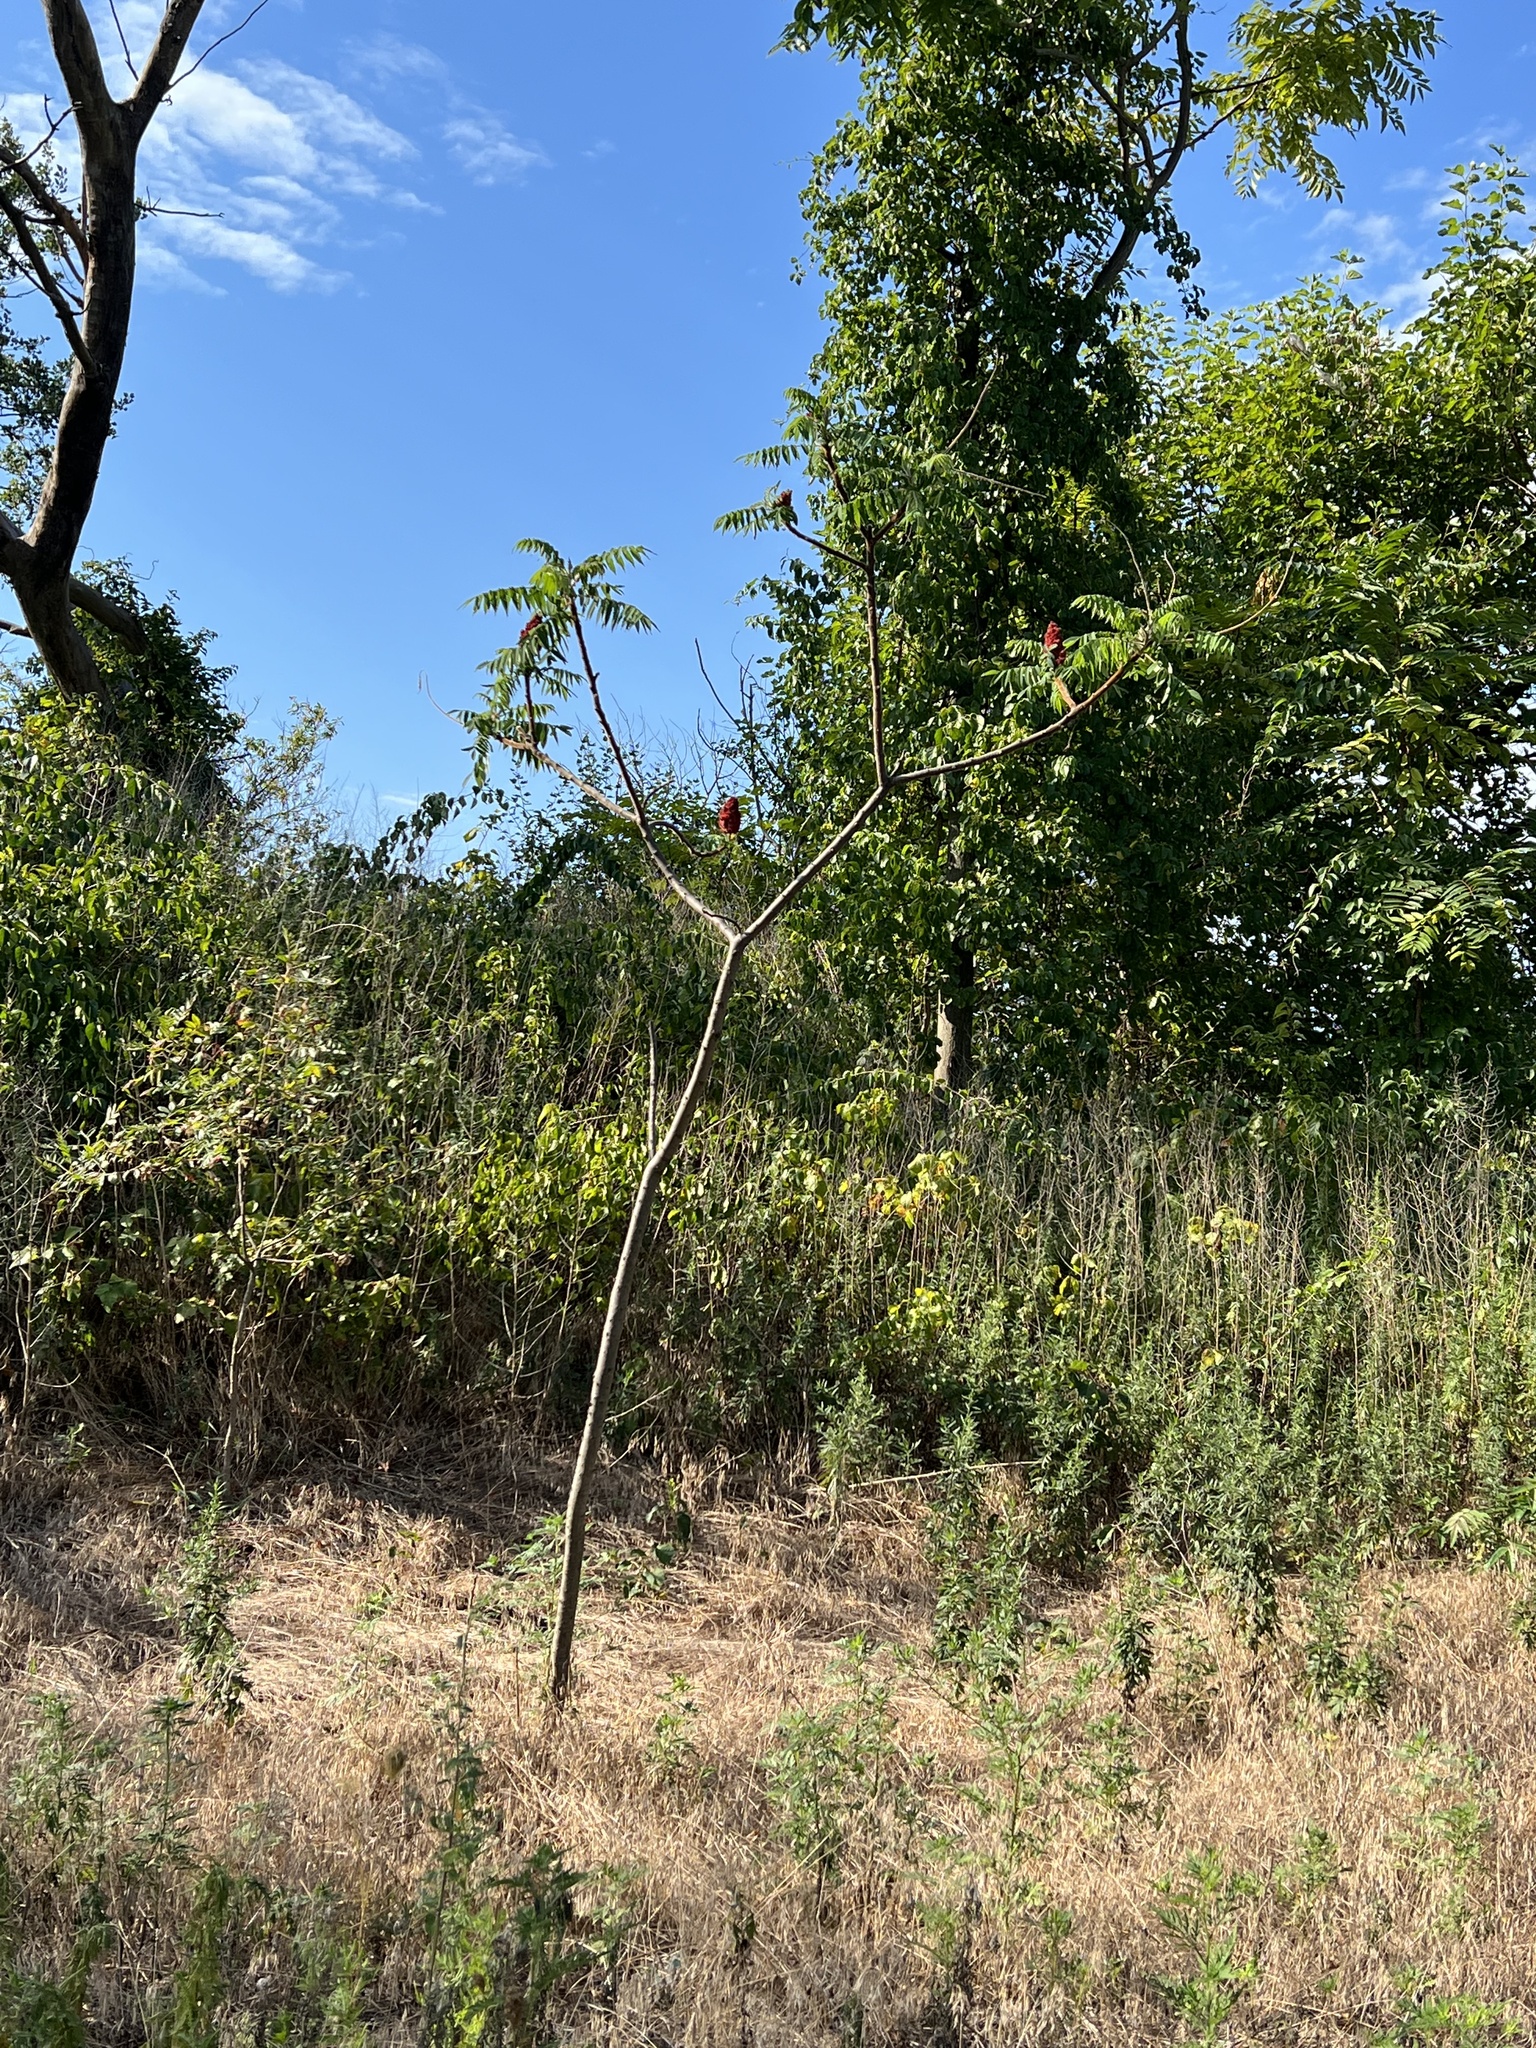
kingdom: Plantae
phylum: Tracheophyta
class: Magnoliopsida
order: Sapindales
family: Anacardiaceae
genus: Rhus
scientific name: Rhus glabra
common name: Scarlet sumac
